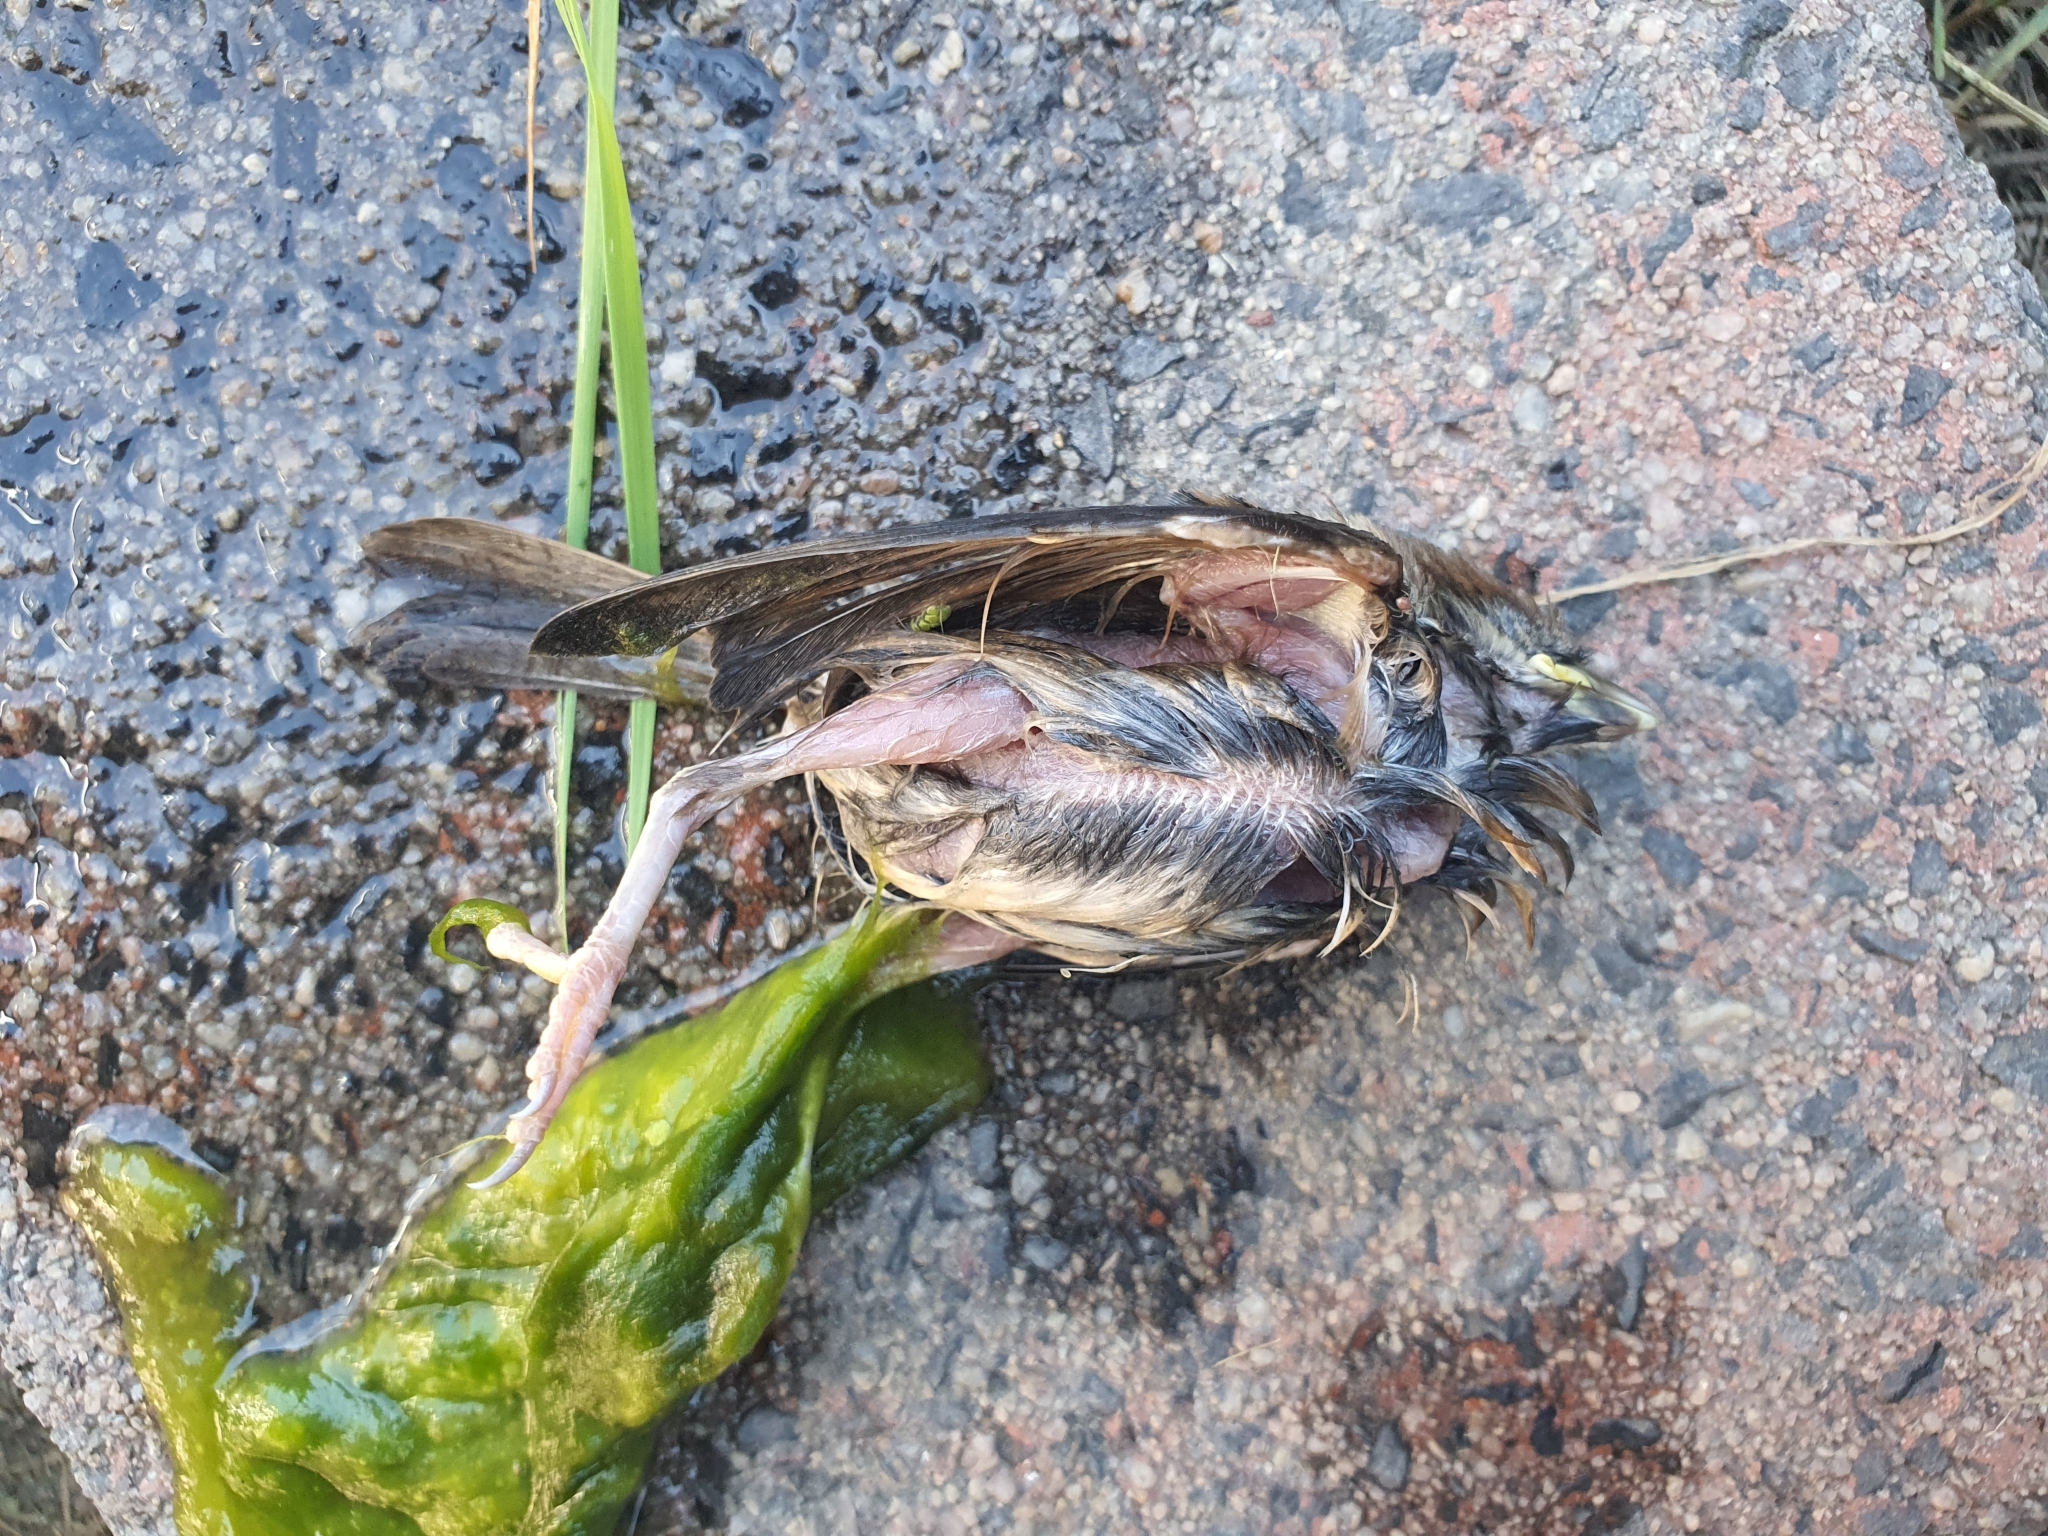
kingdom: Animalia
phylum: Chordata
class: Aves
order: Passeriformes
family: Passeridae
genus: Passer
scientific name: Passer domesticus
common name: House sparrow
